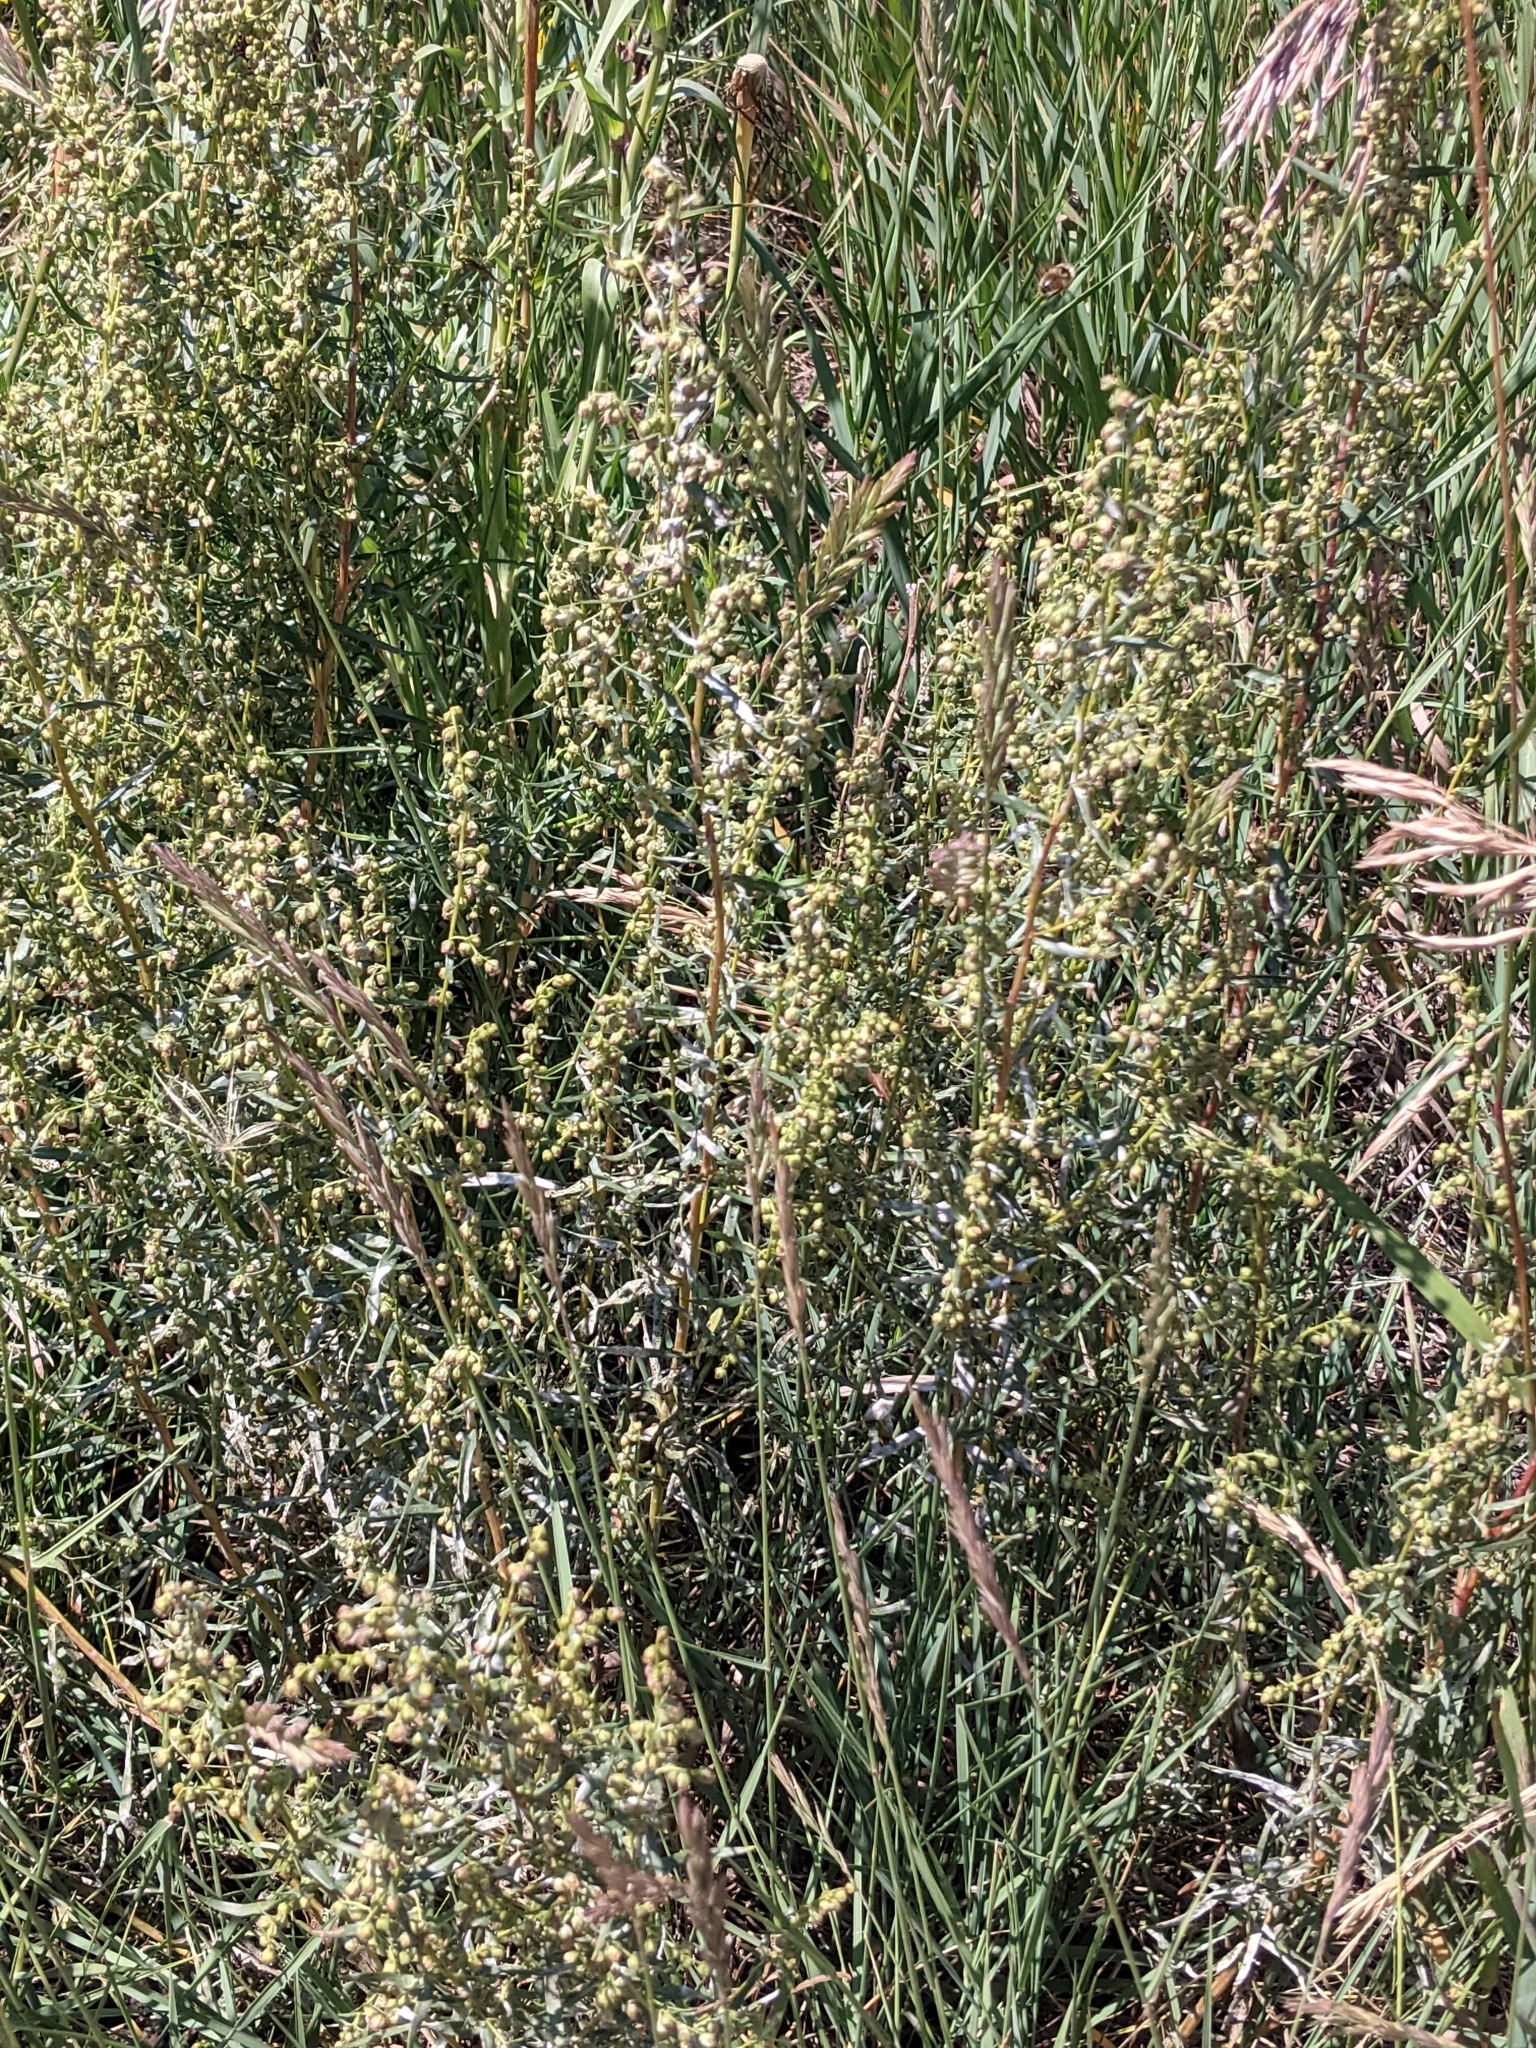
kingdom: Plantae
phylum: Tracheophyta
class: Magnoliopsida
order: Asterales
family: Asteraceae
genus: Artemisia
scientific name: Artemisia dracunculus
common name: Tarragon
